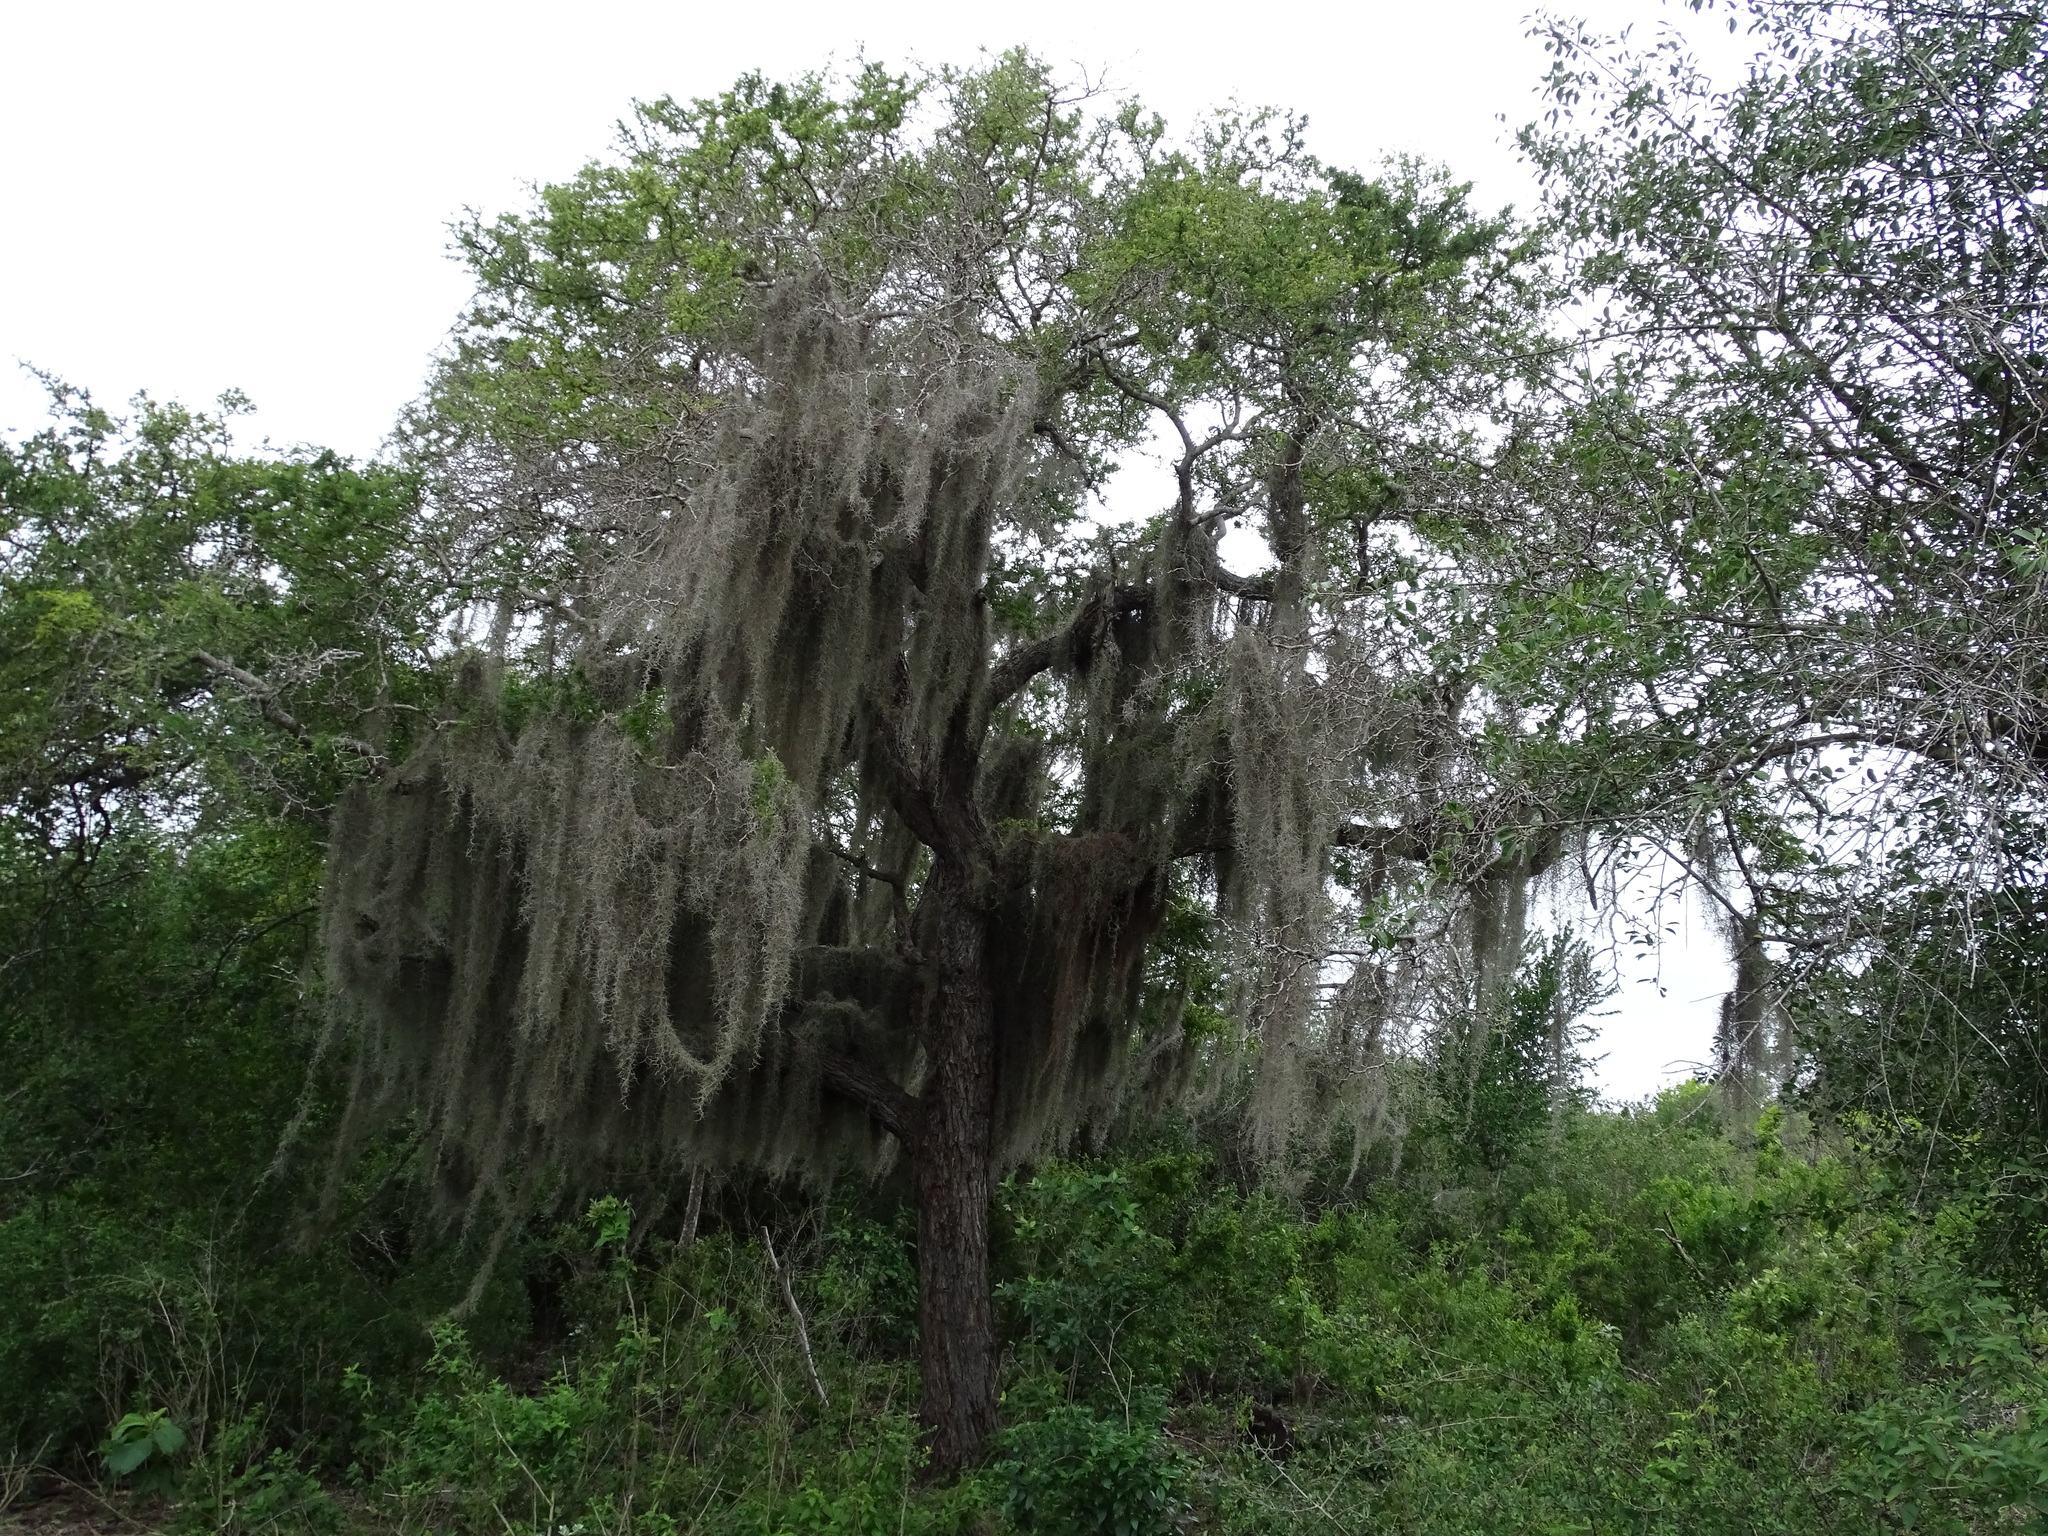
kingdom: Plantae
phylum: Tracheophyta
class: Liliopsida
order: Poales
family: Bromeliaceae
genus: Tillandsia
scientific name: Tillandsia usneoides
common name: Spanish moss
